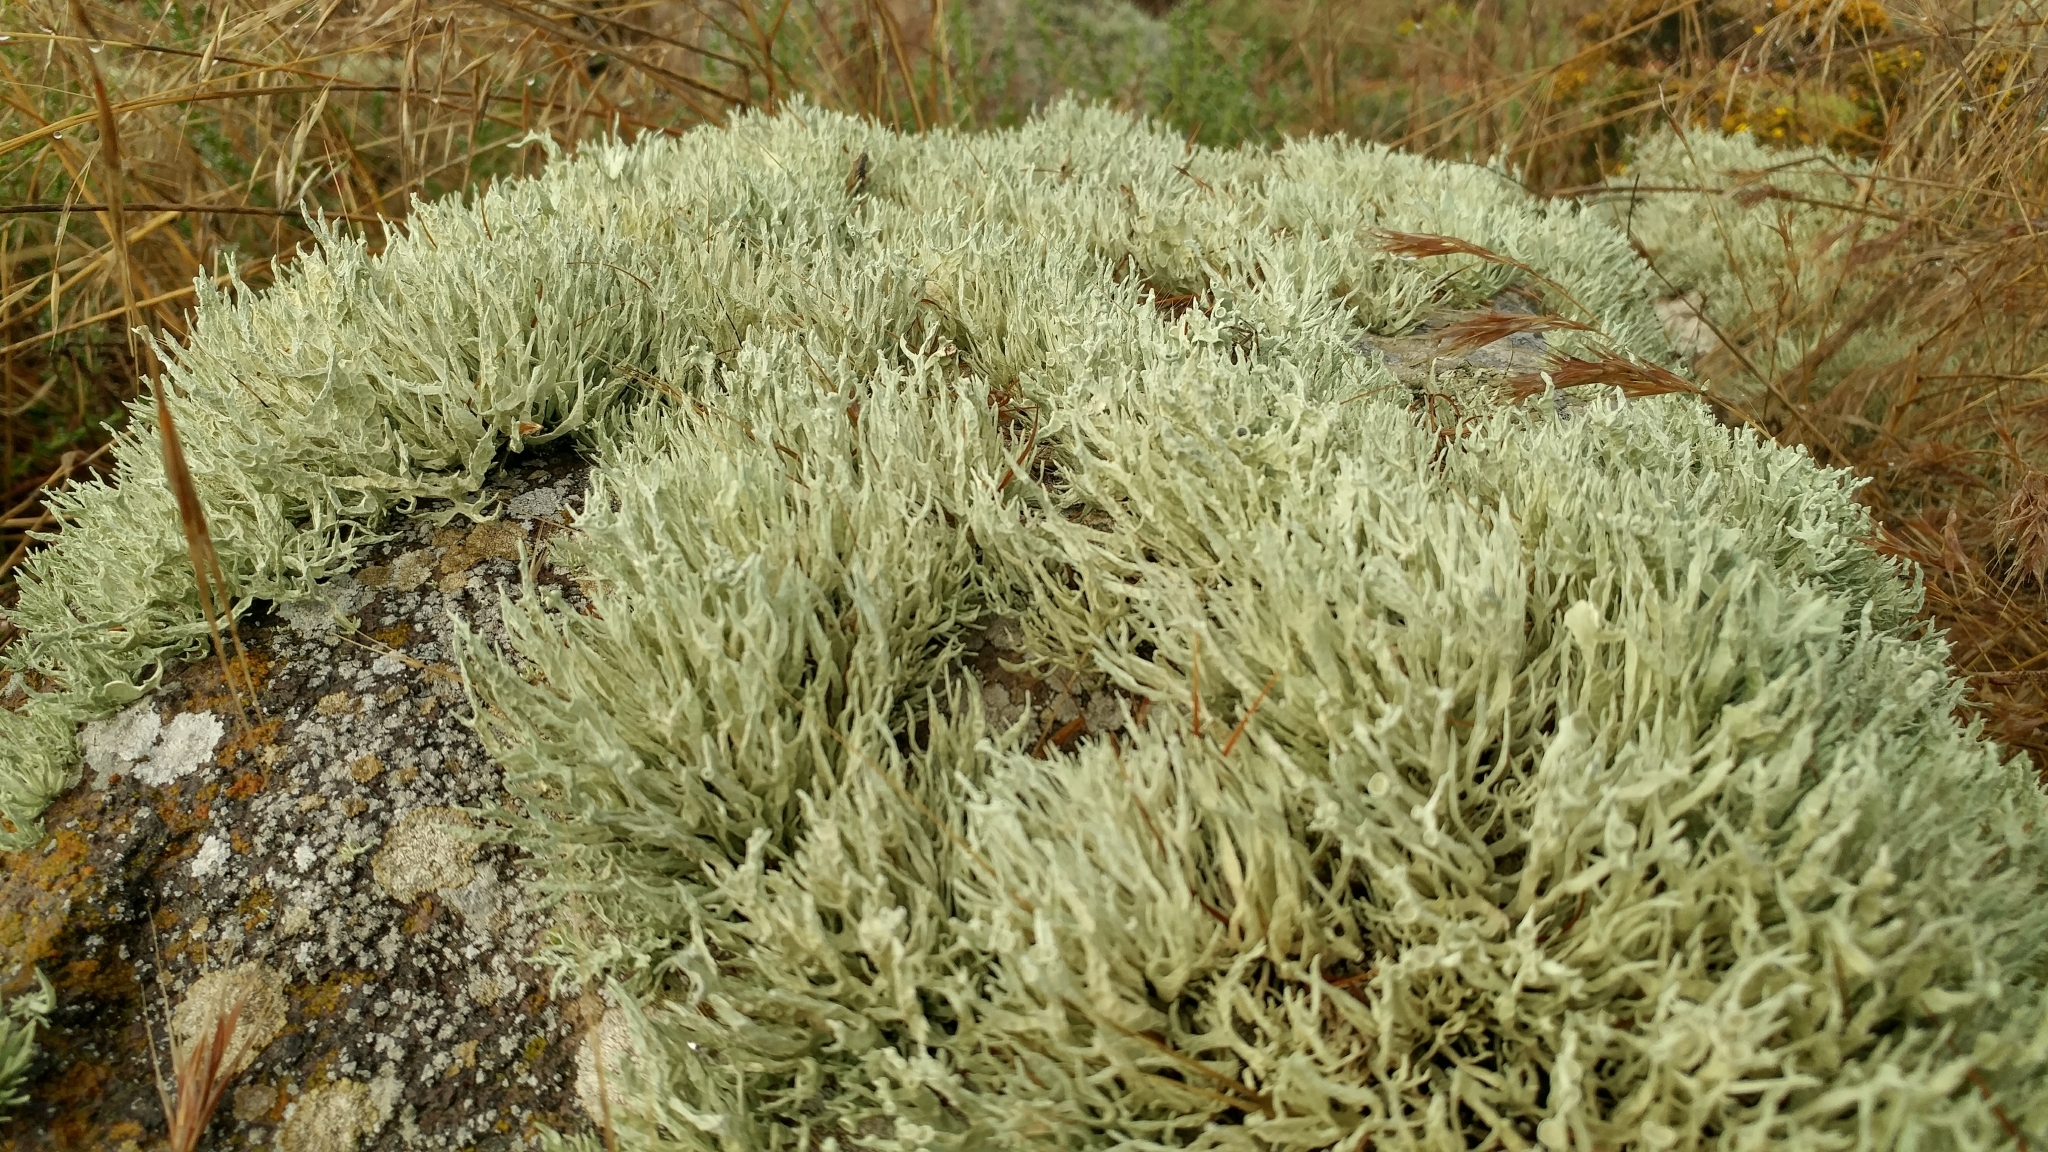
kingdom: Fungi
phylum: Ascomycota
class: Lecanoromycetes
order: Lecanorales
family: Ramalinaceae
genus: Niebla
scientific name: Niebla homalea
